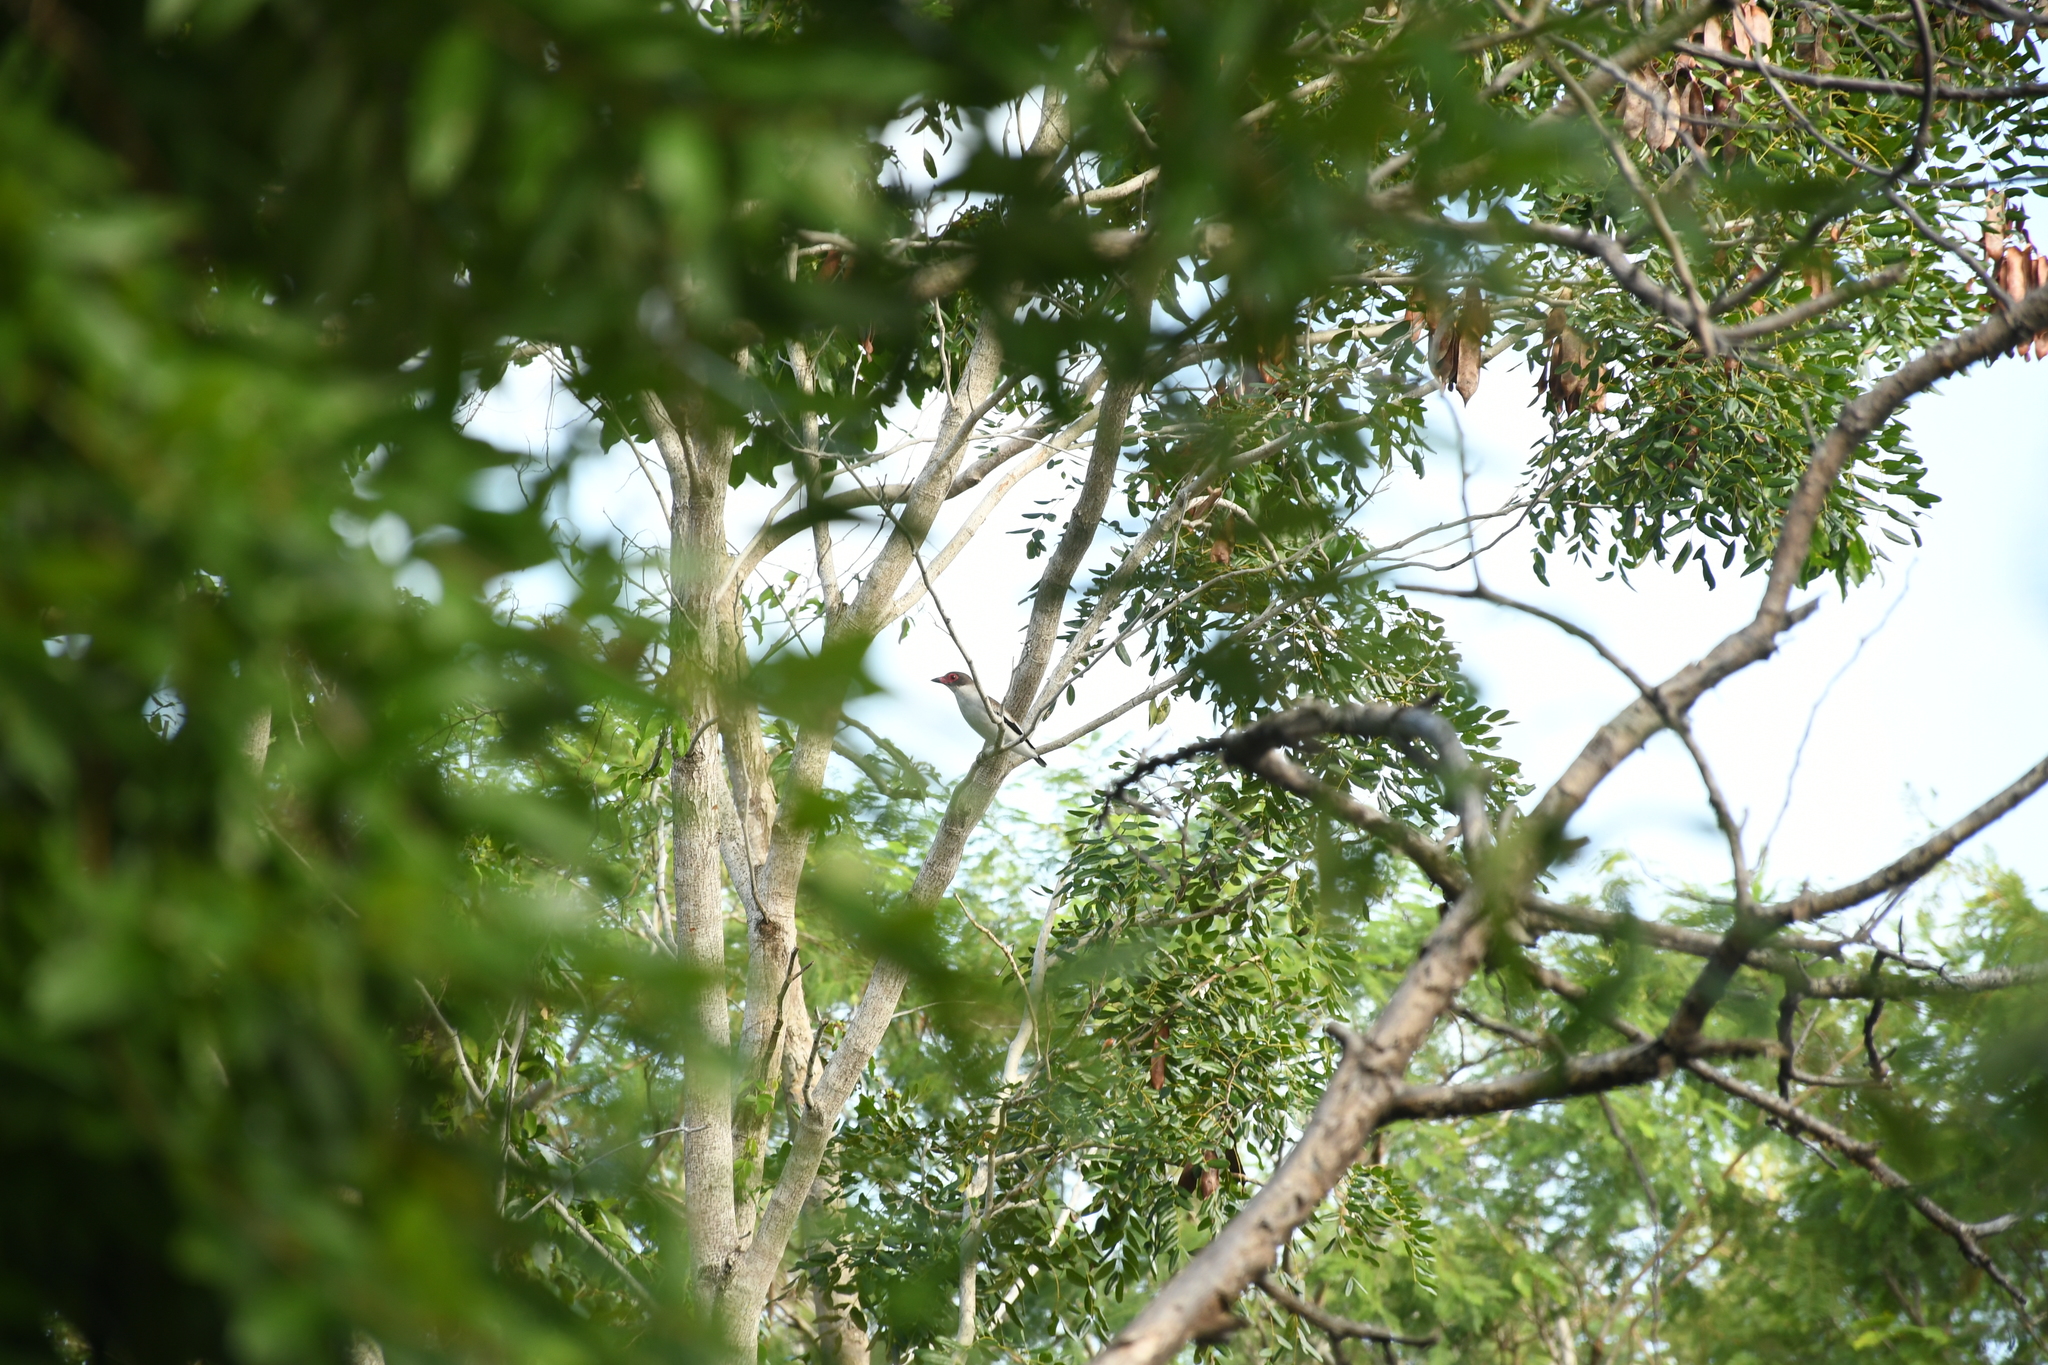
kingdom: Animalia
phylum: Chordata
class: Aves
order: Passeriformes
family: Cotingidae
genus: Tityra
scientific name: Tityra semifasciata
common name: Masked tityra
